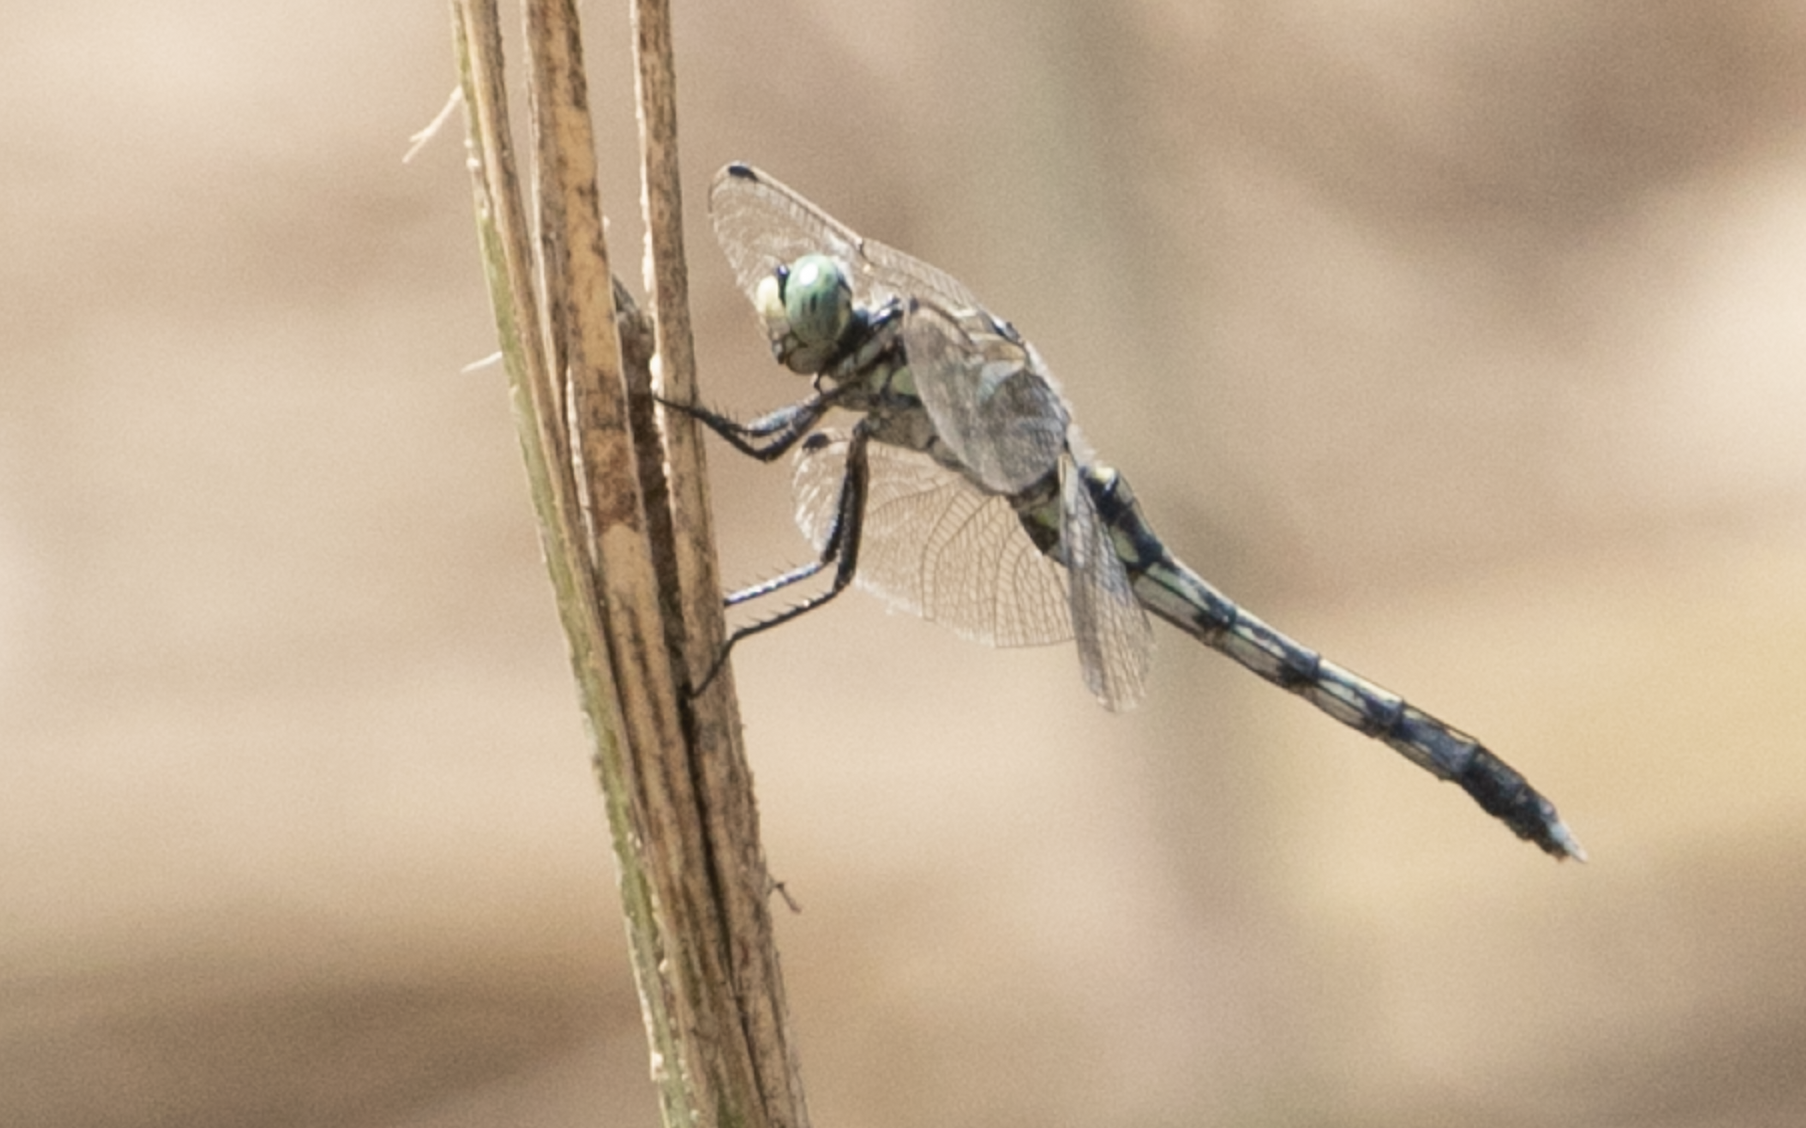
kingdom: Animalia
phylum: Arthropoda
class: Insecta
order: Odonata
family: Libellulidae
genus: Orthetrum
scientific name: Orthetrum albistylum
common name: White-tailed skimmer
